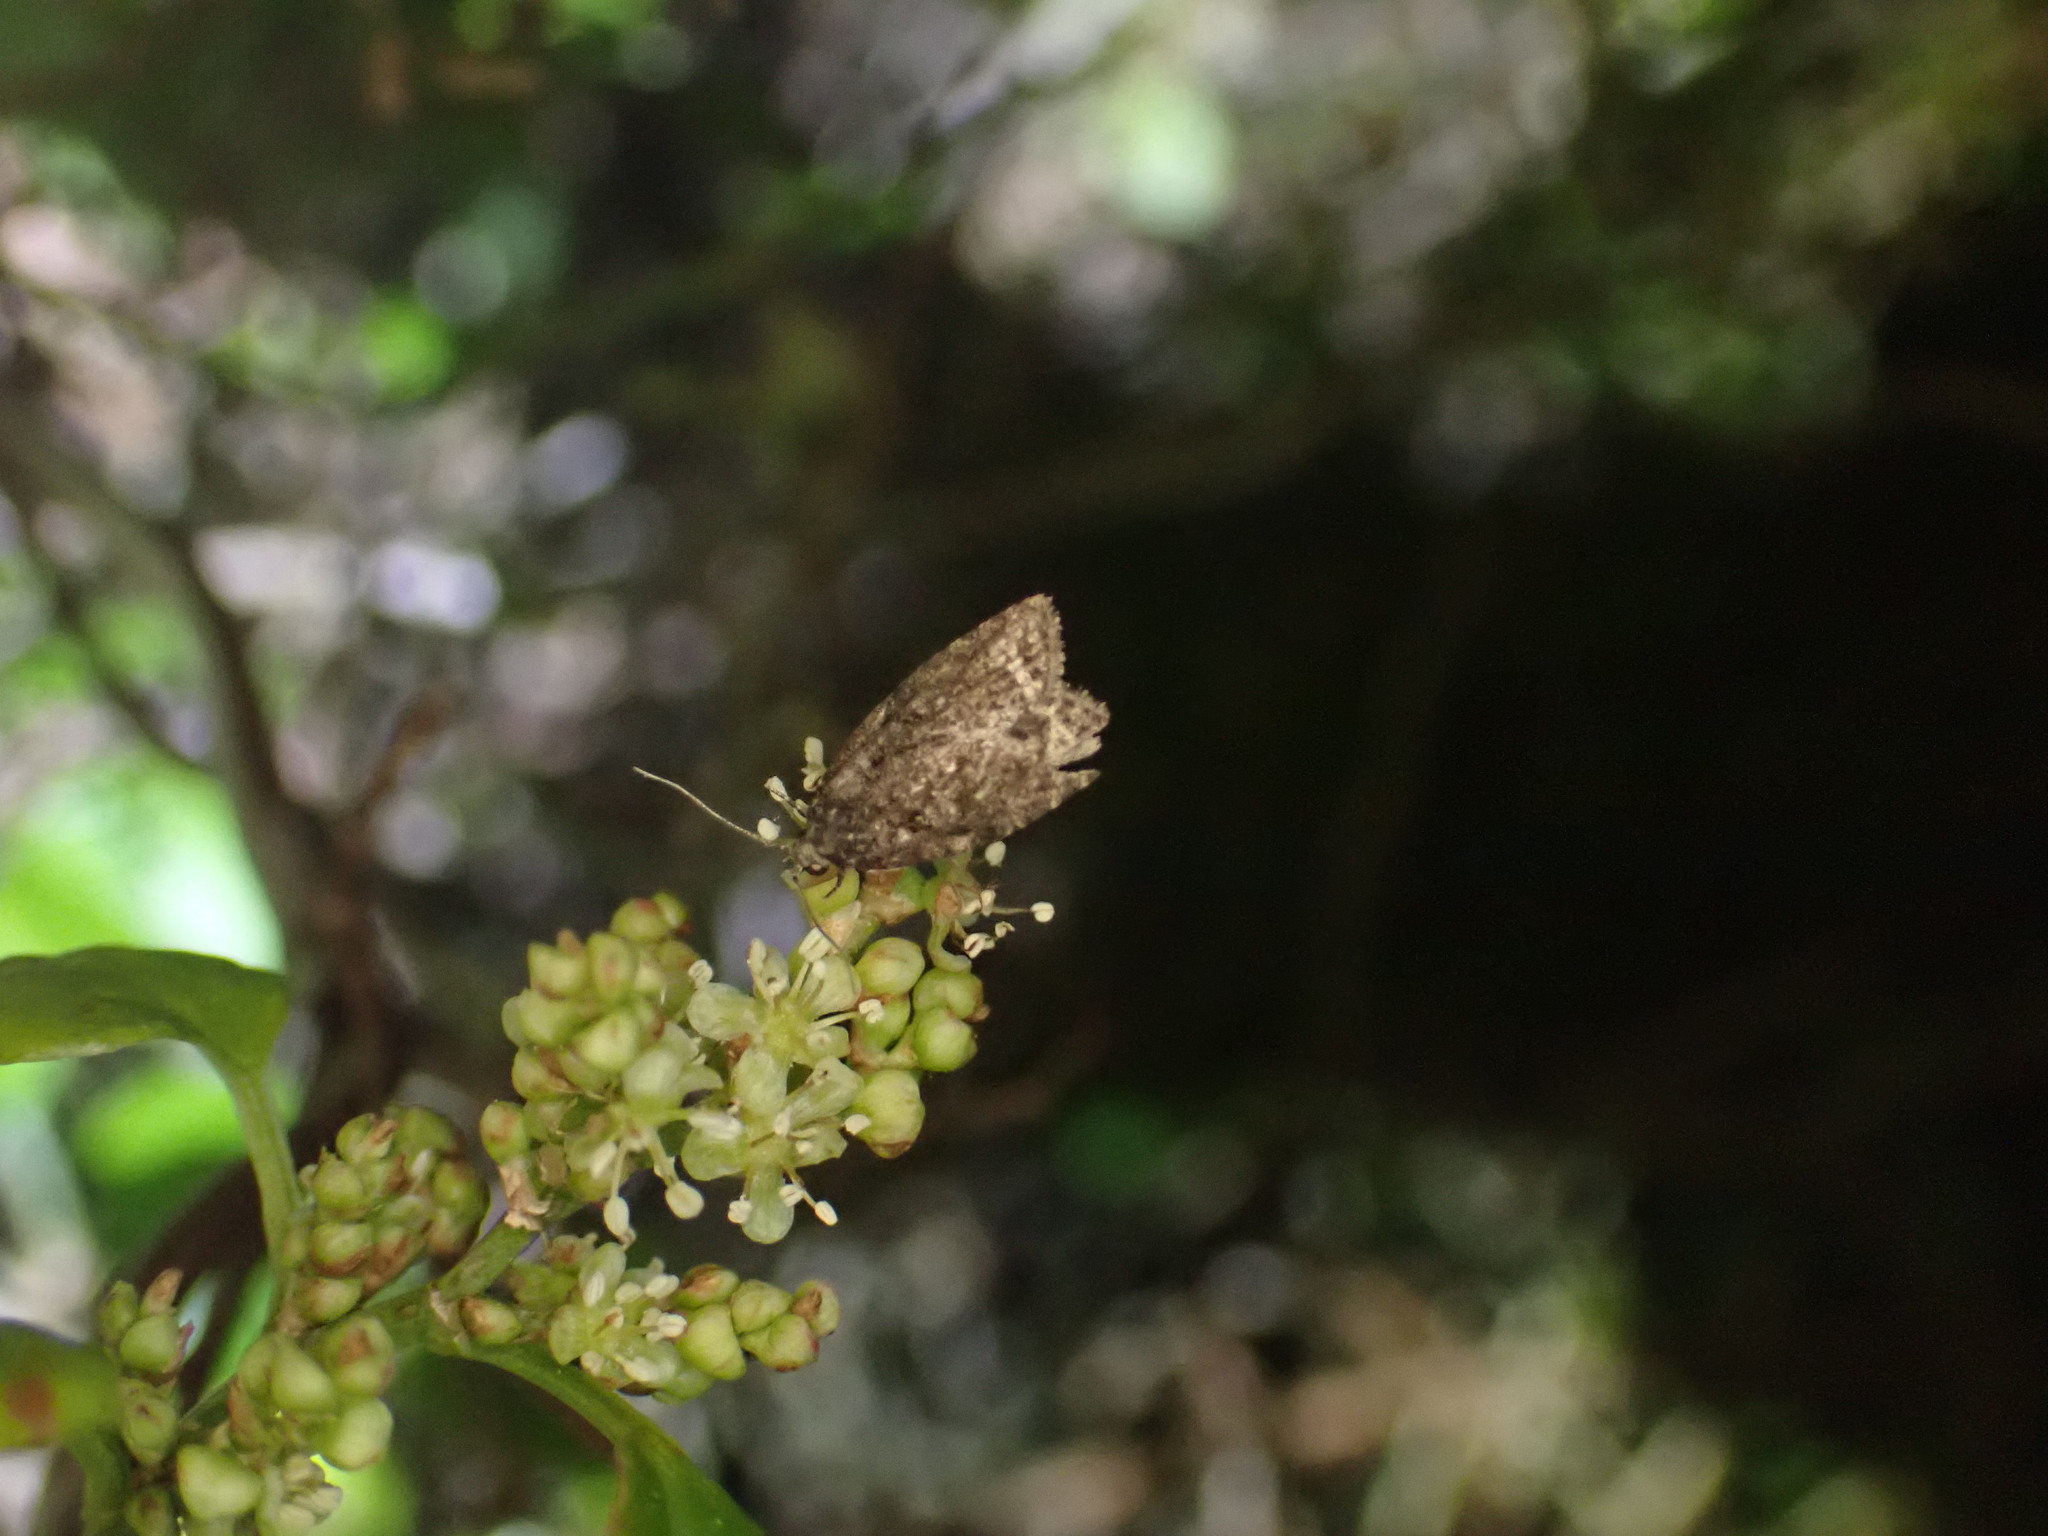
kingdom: Animalia
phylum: Arthropoda
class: Insecta
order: Lepidoptera
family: Tortricidae
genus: Capua
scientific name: Capua intractana
